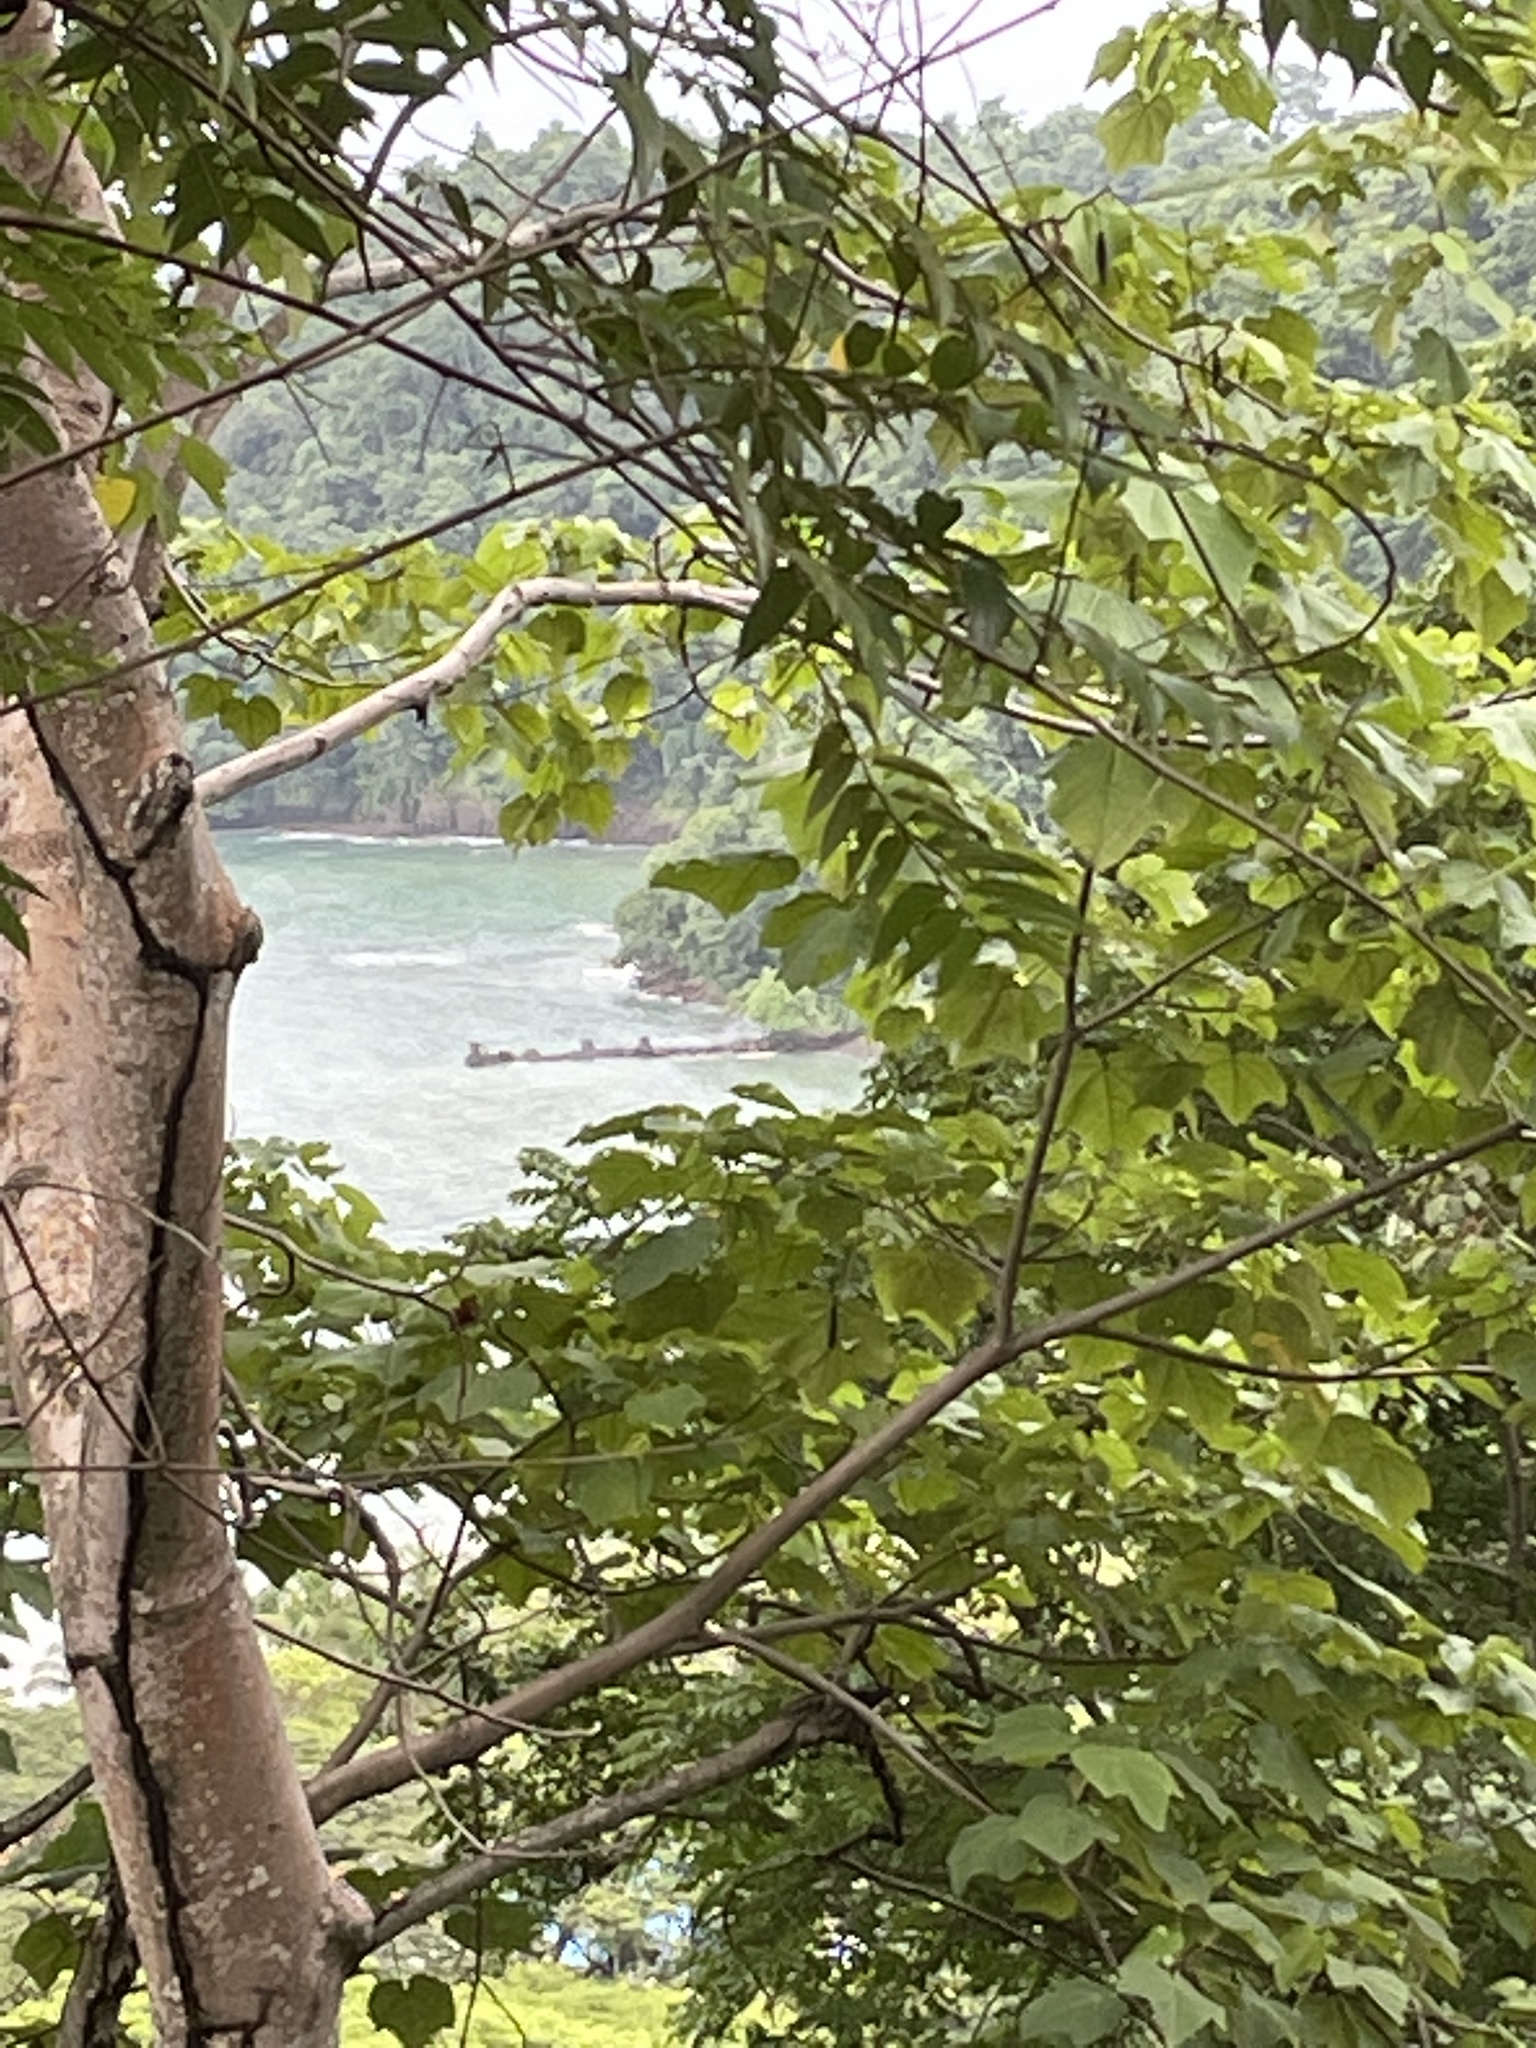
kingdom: Plantae
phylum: Tracheophyta
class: Magnoliopsida
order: Sapindales
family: Burseraceae
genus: Bursera
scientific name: Bursera simaruba
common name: Turpentine tree
